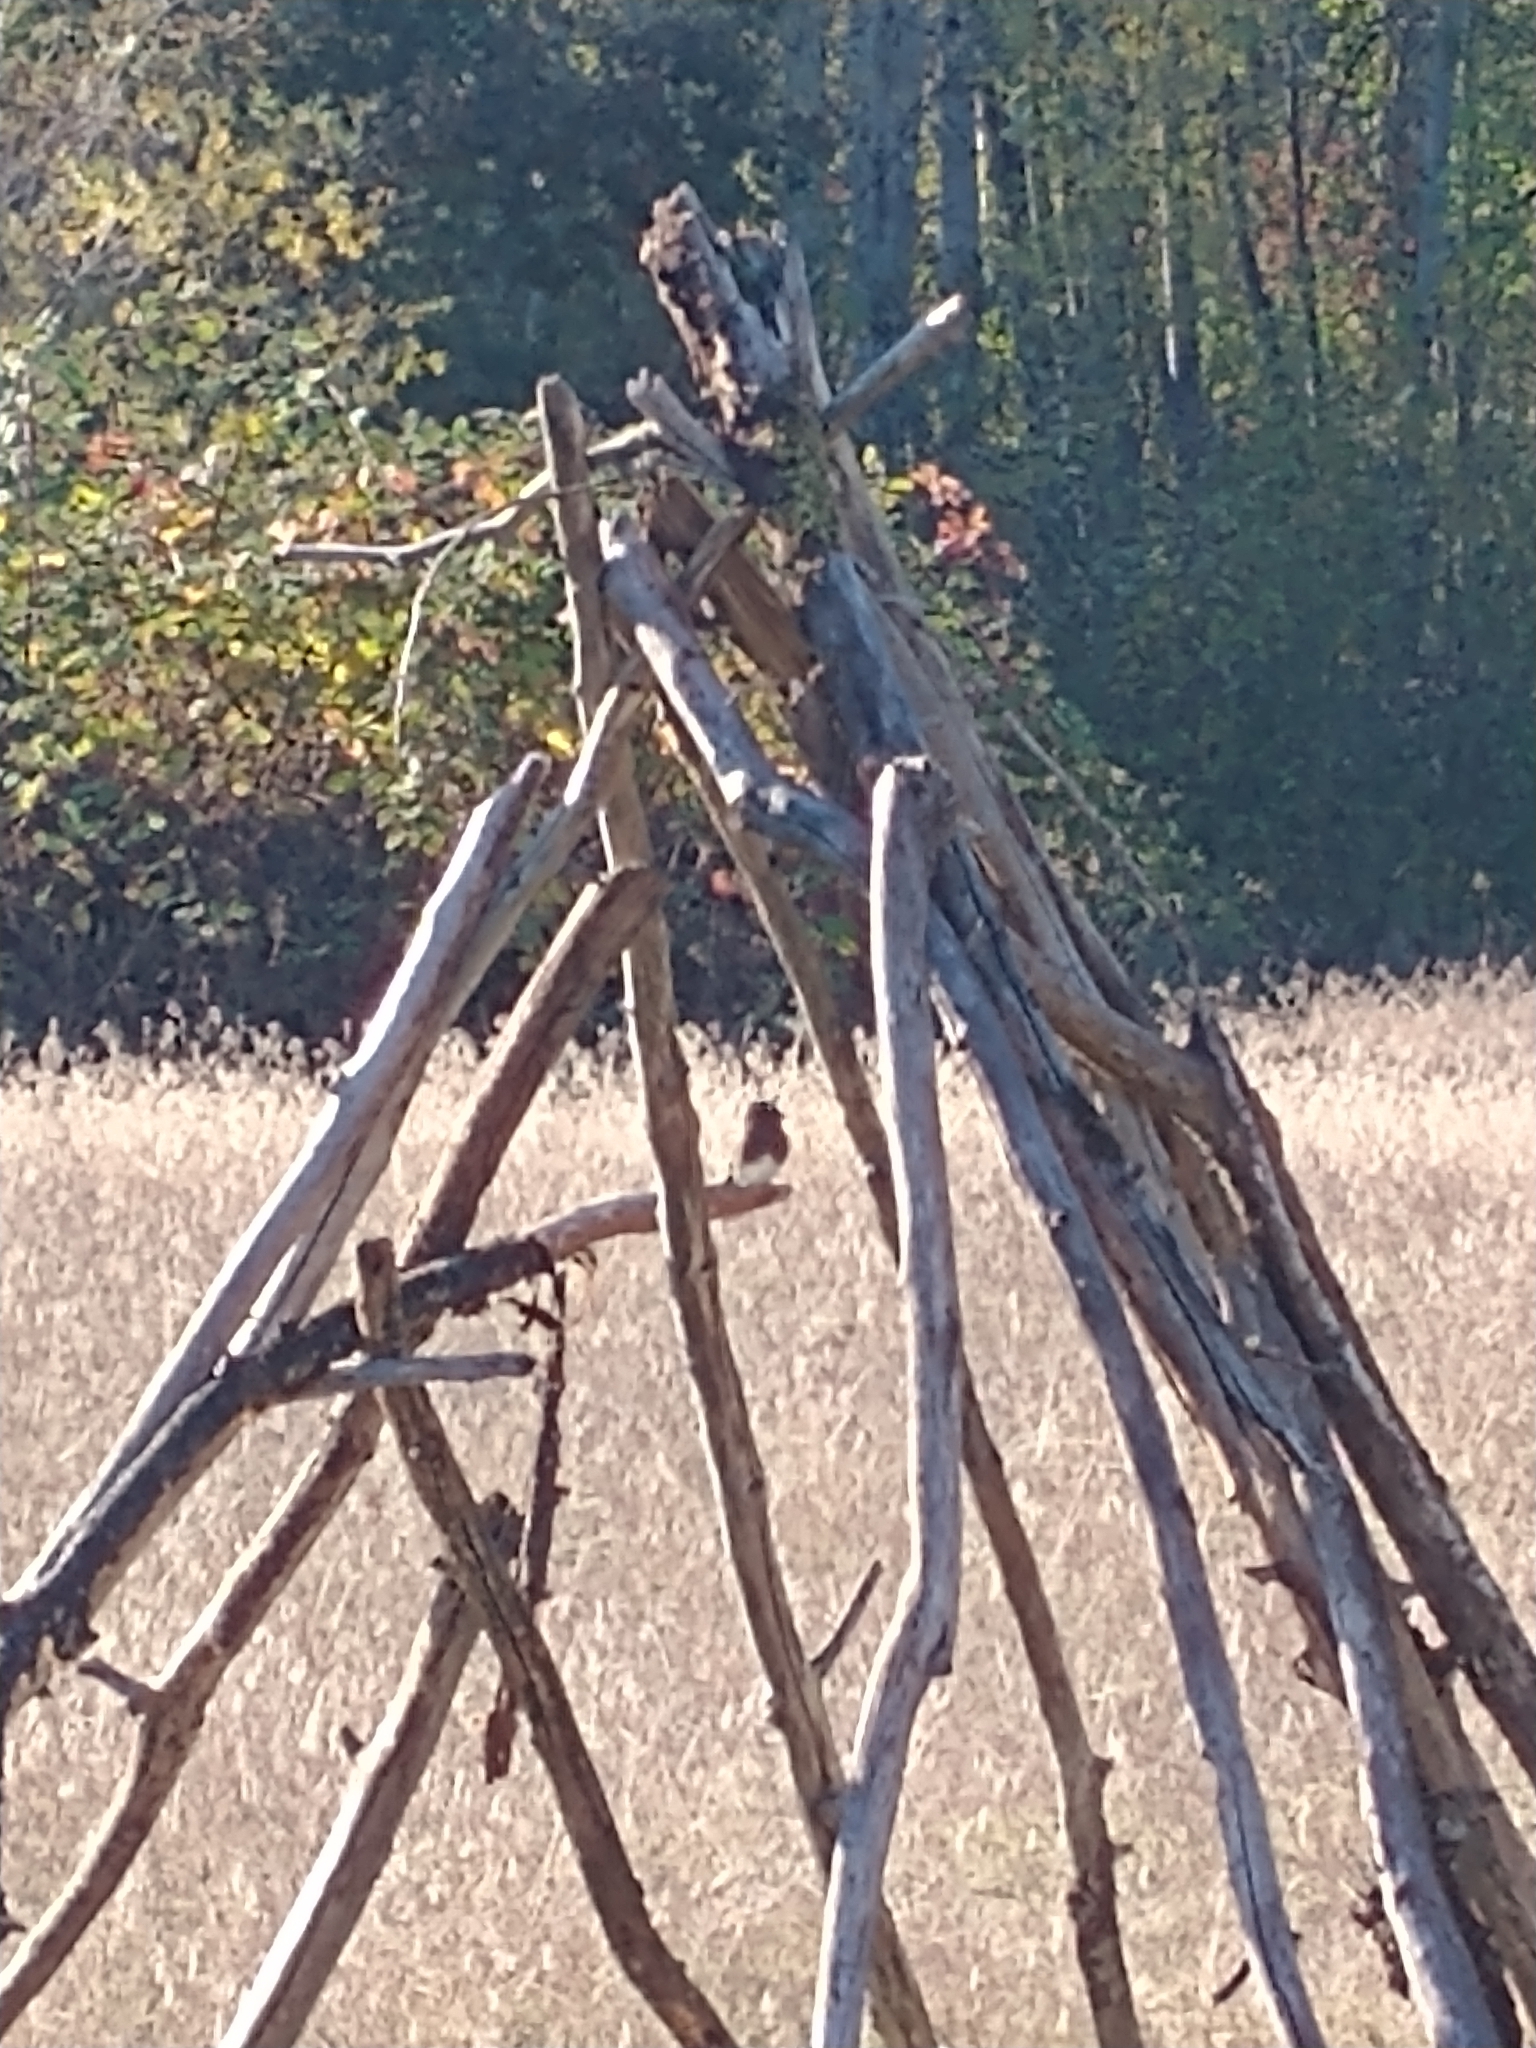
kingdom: Animalia
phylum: Chordata
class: Aves
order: Passeriformes
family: Tyrannidae
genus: Sayornis
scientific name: Sayornis nigricans
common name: Black phoebe
